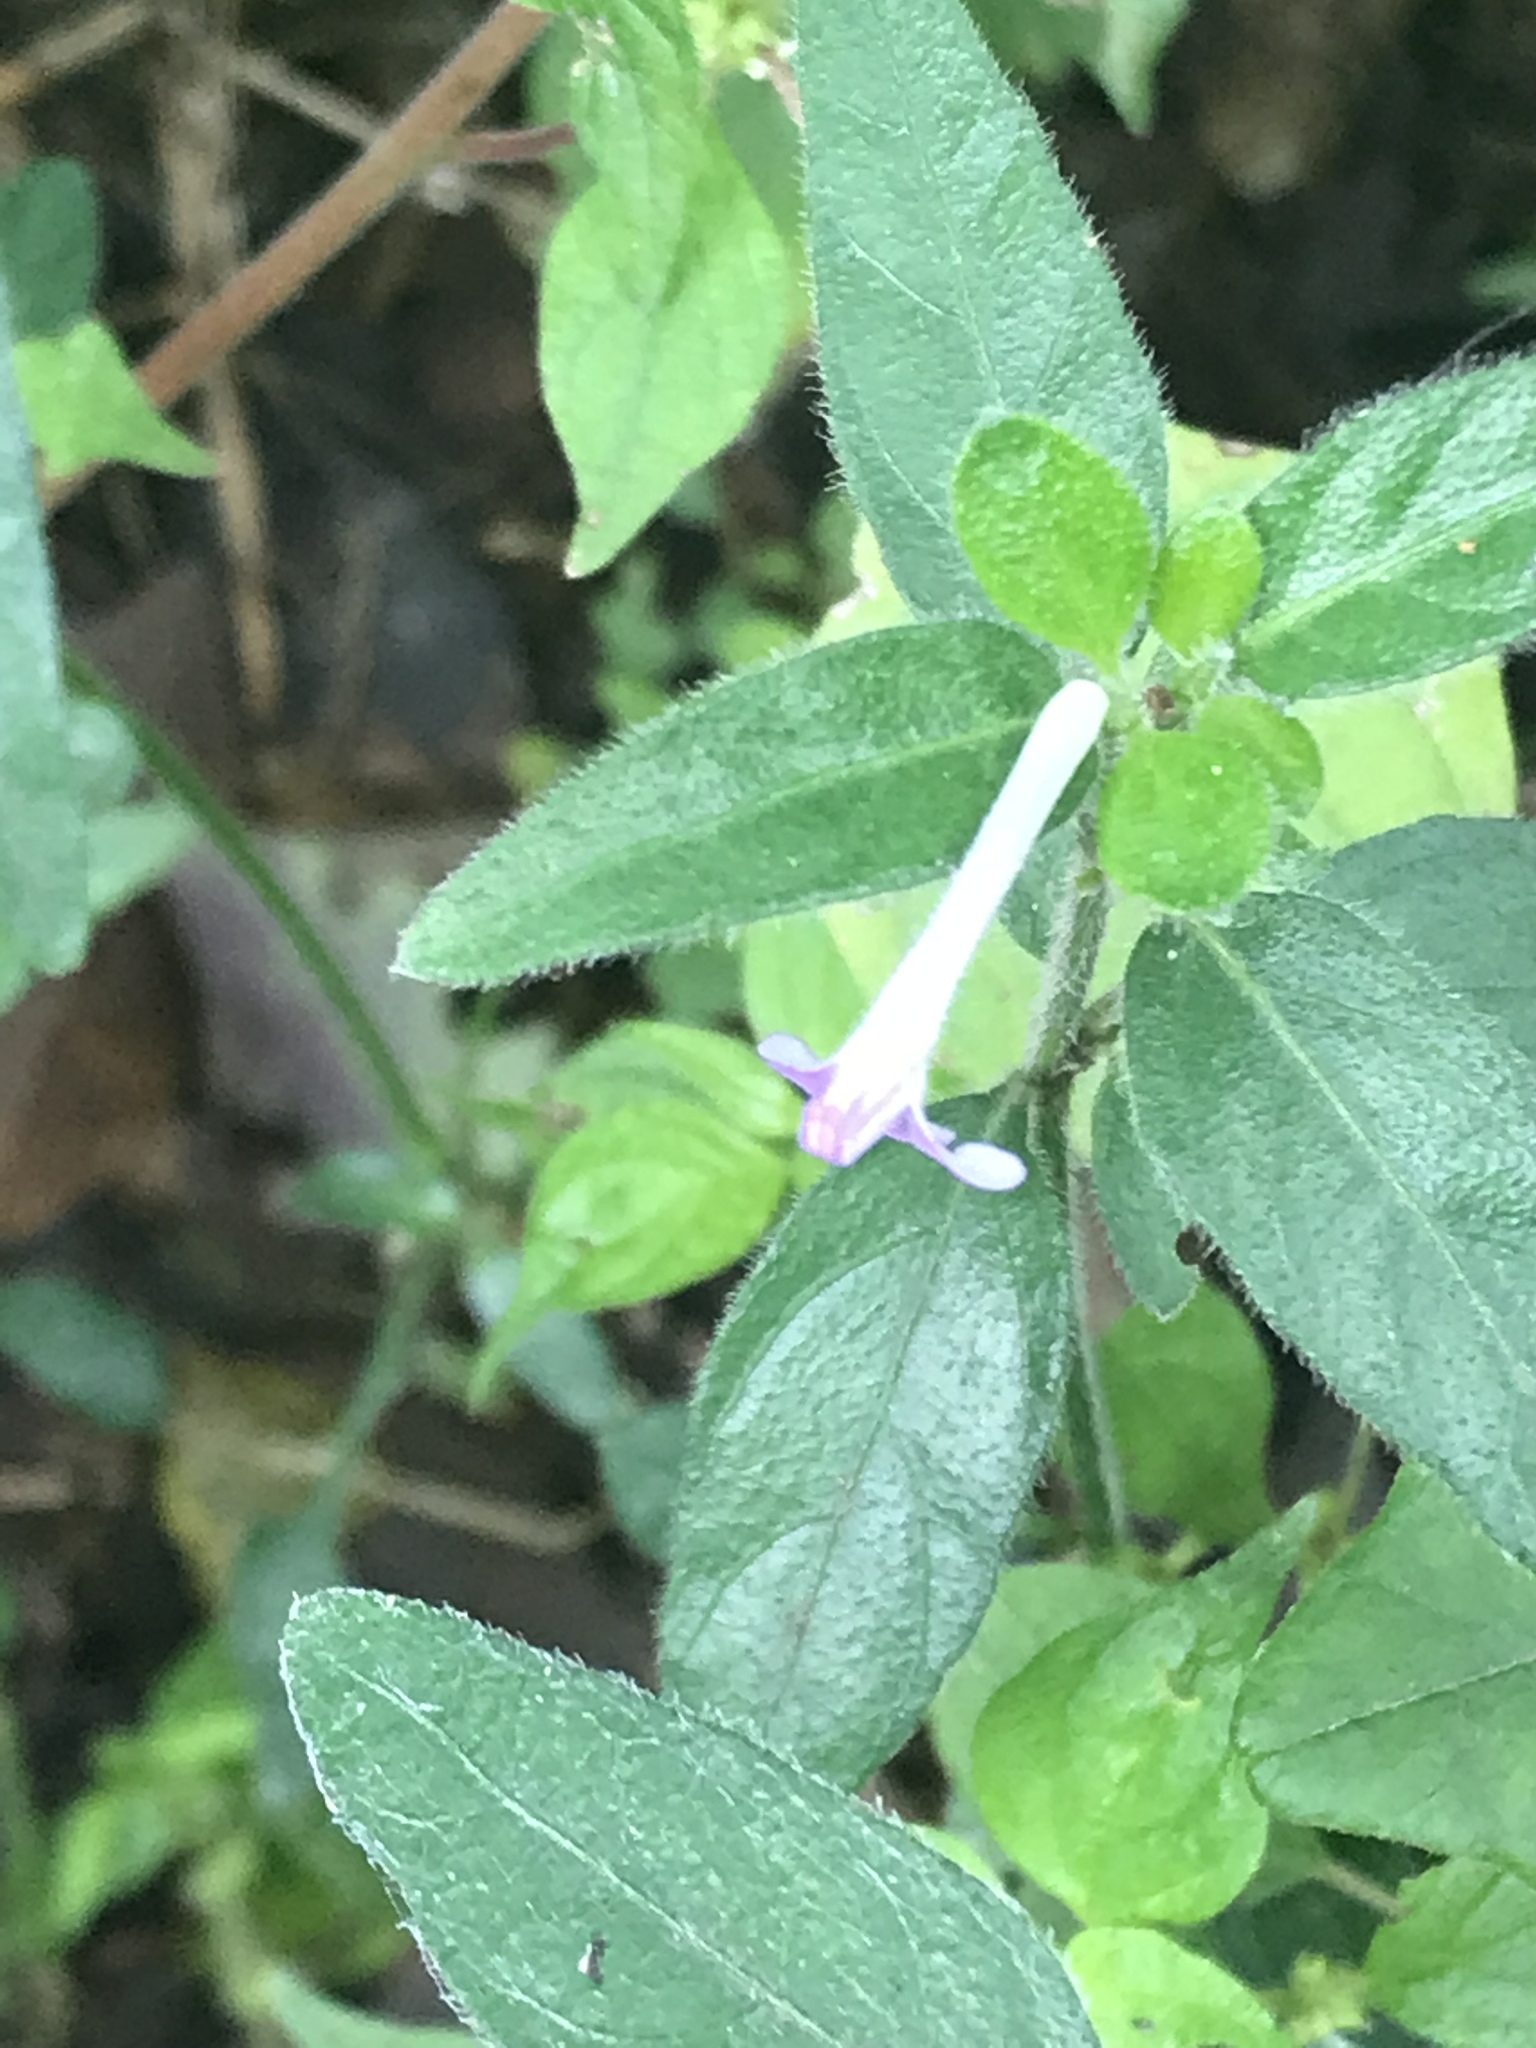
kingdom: Plantae
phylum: Tracheophyta
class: Magnoliopsida
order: Lamiales
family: Acanthaceae
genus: Justicia
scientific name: Justicia pilosella
